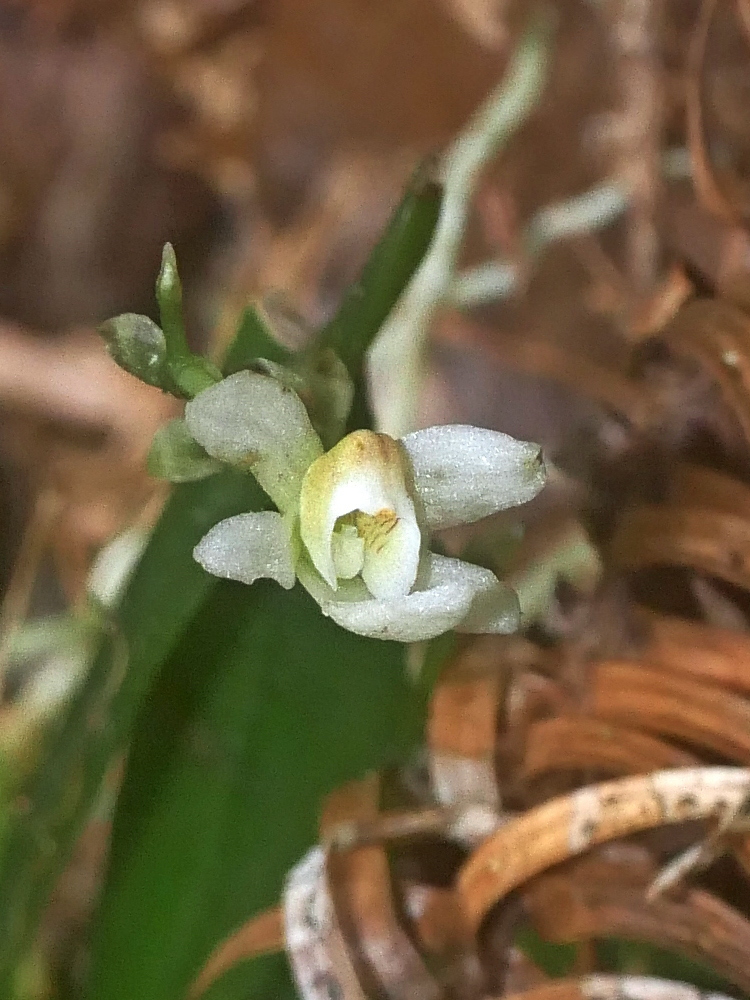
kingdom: Plantae
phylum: Tracheophyta
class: Liliopsida
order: Asparagales
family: Orchidaceae
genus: Thrixspermum
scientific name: Thrixspermum saruwatarii
